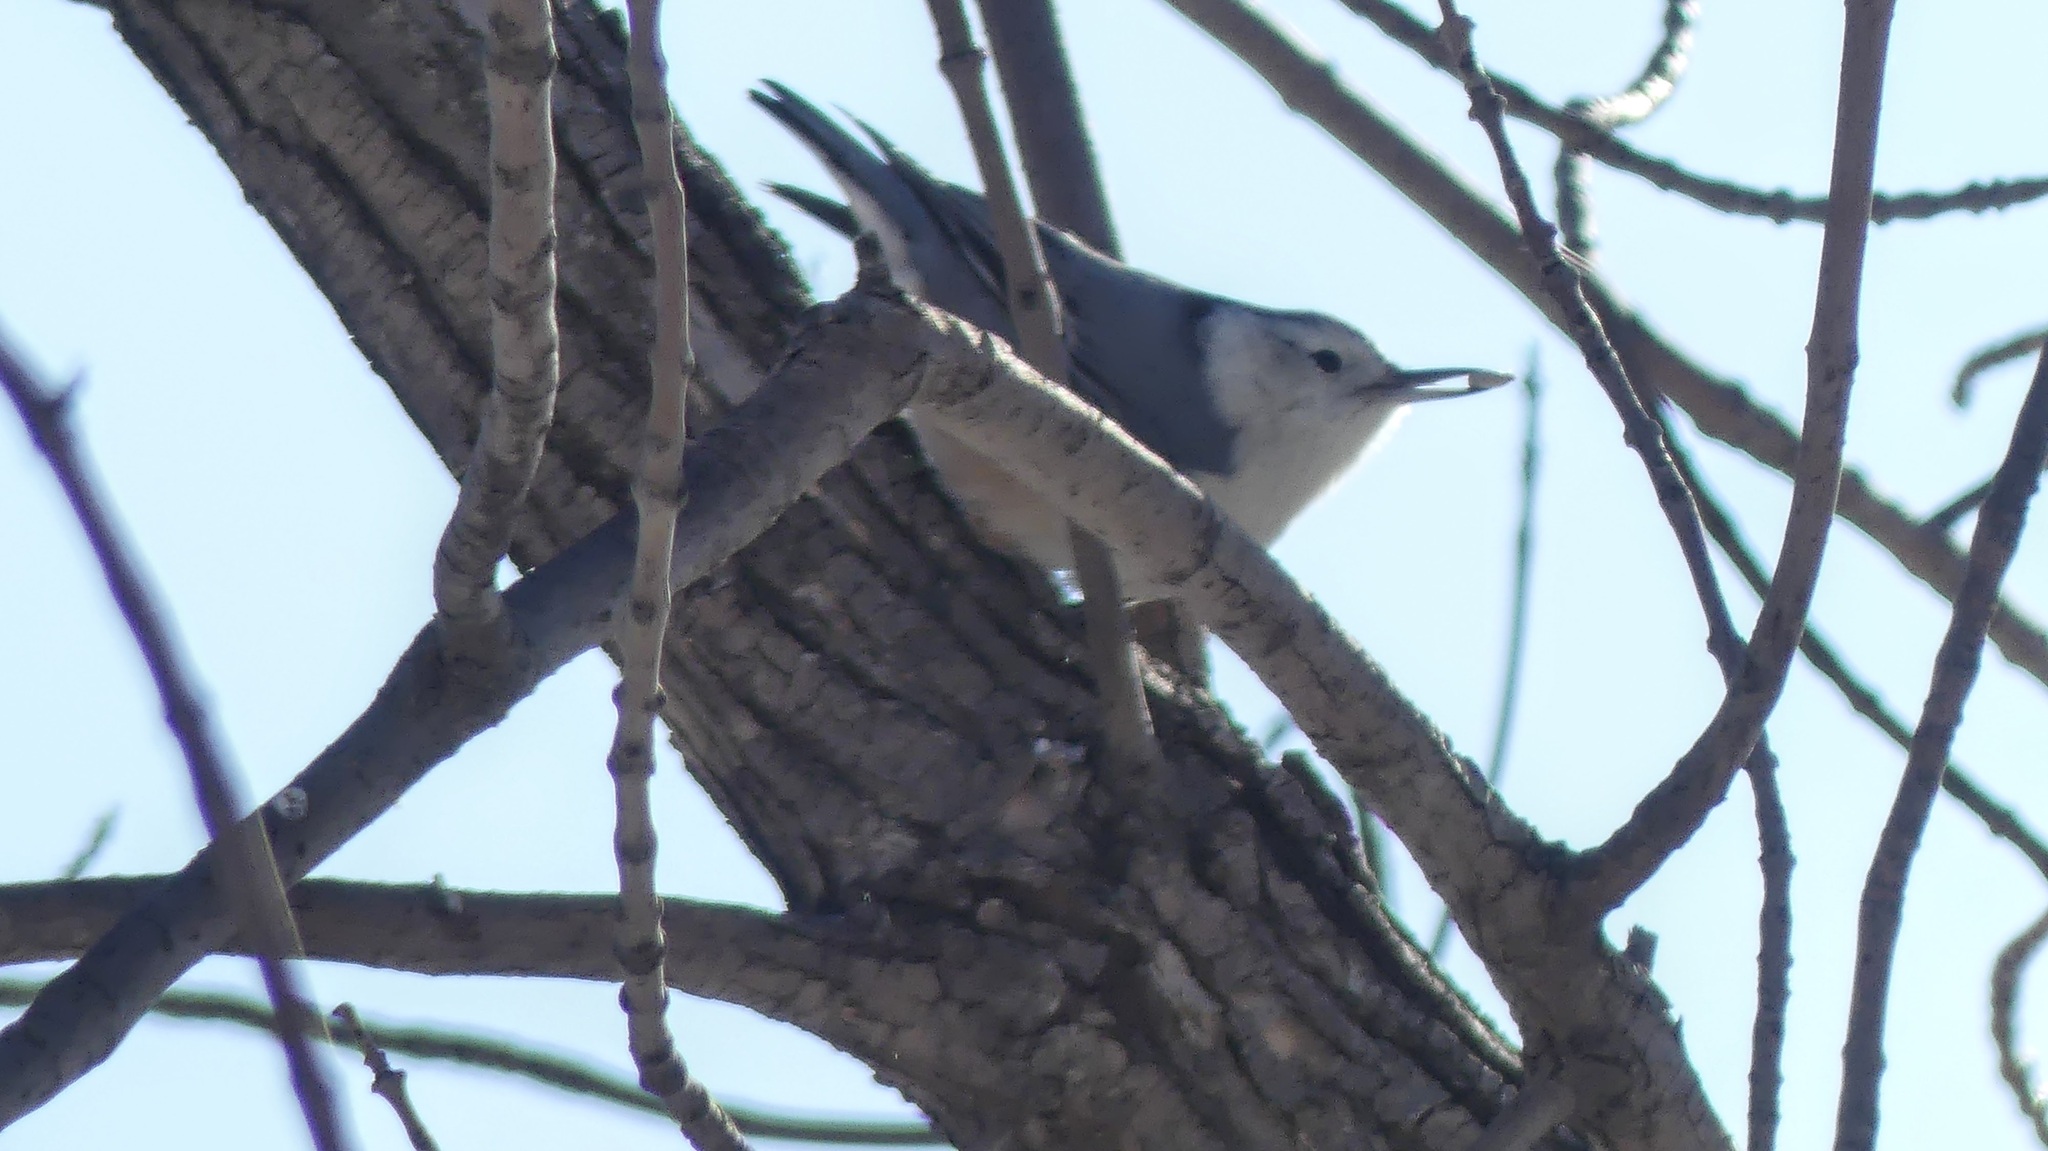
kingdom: Animalia
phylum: Chordata
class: Aves
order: Passeriformes
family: Sittidae
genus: Sitta
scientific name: Sitta carolinensis
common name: White-breasted nuthatch
